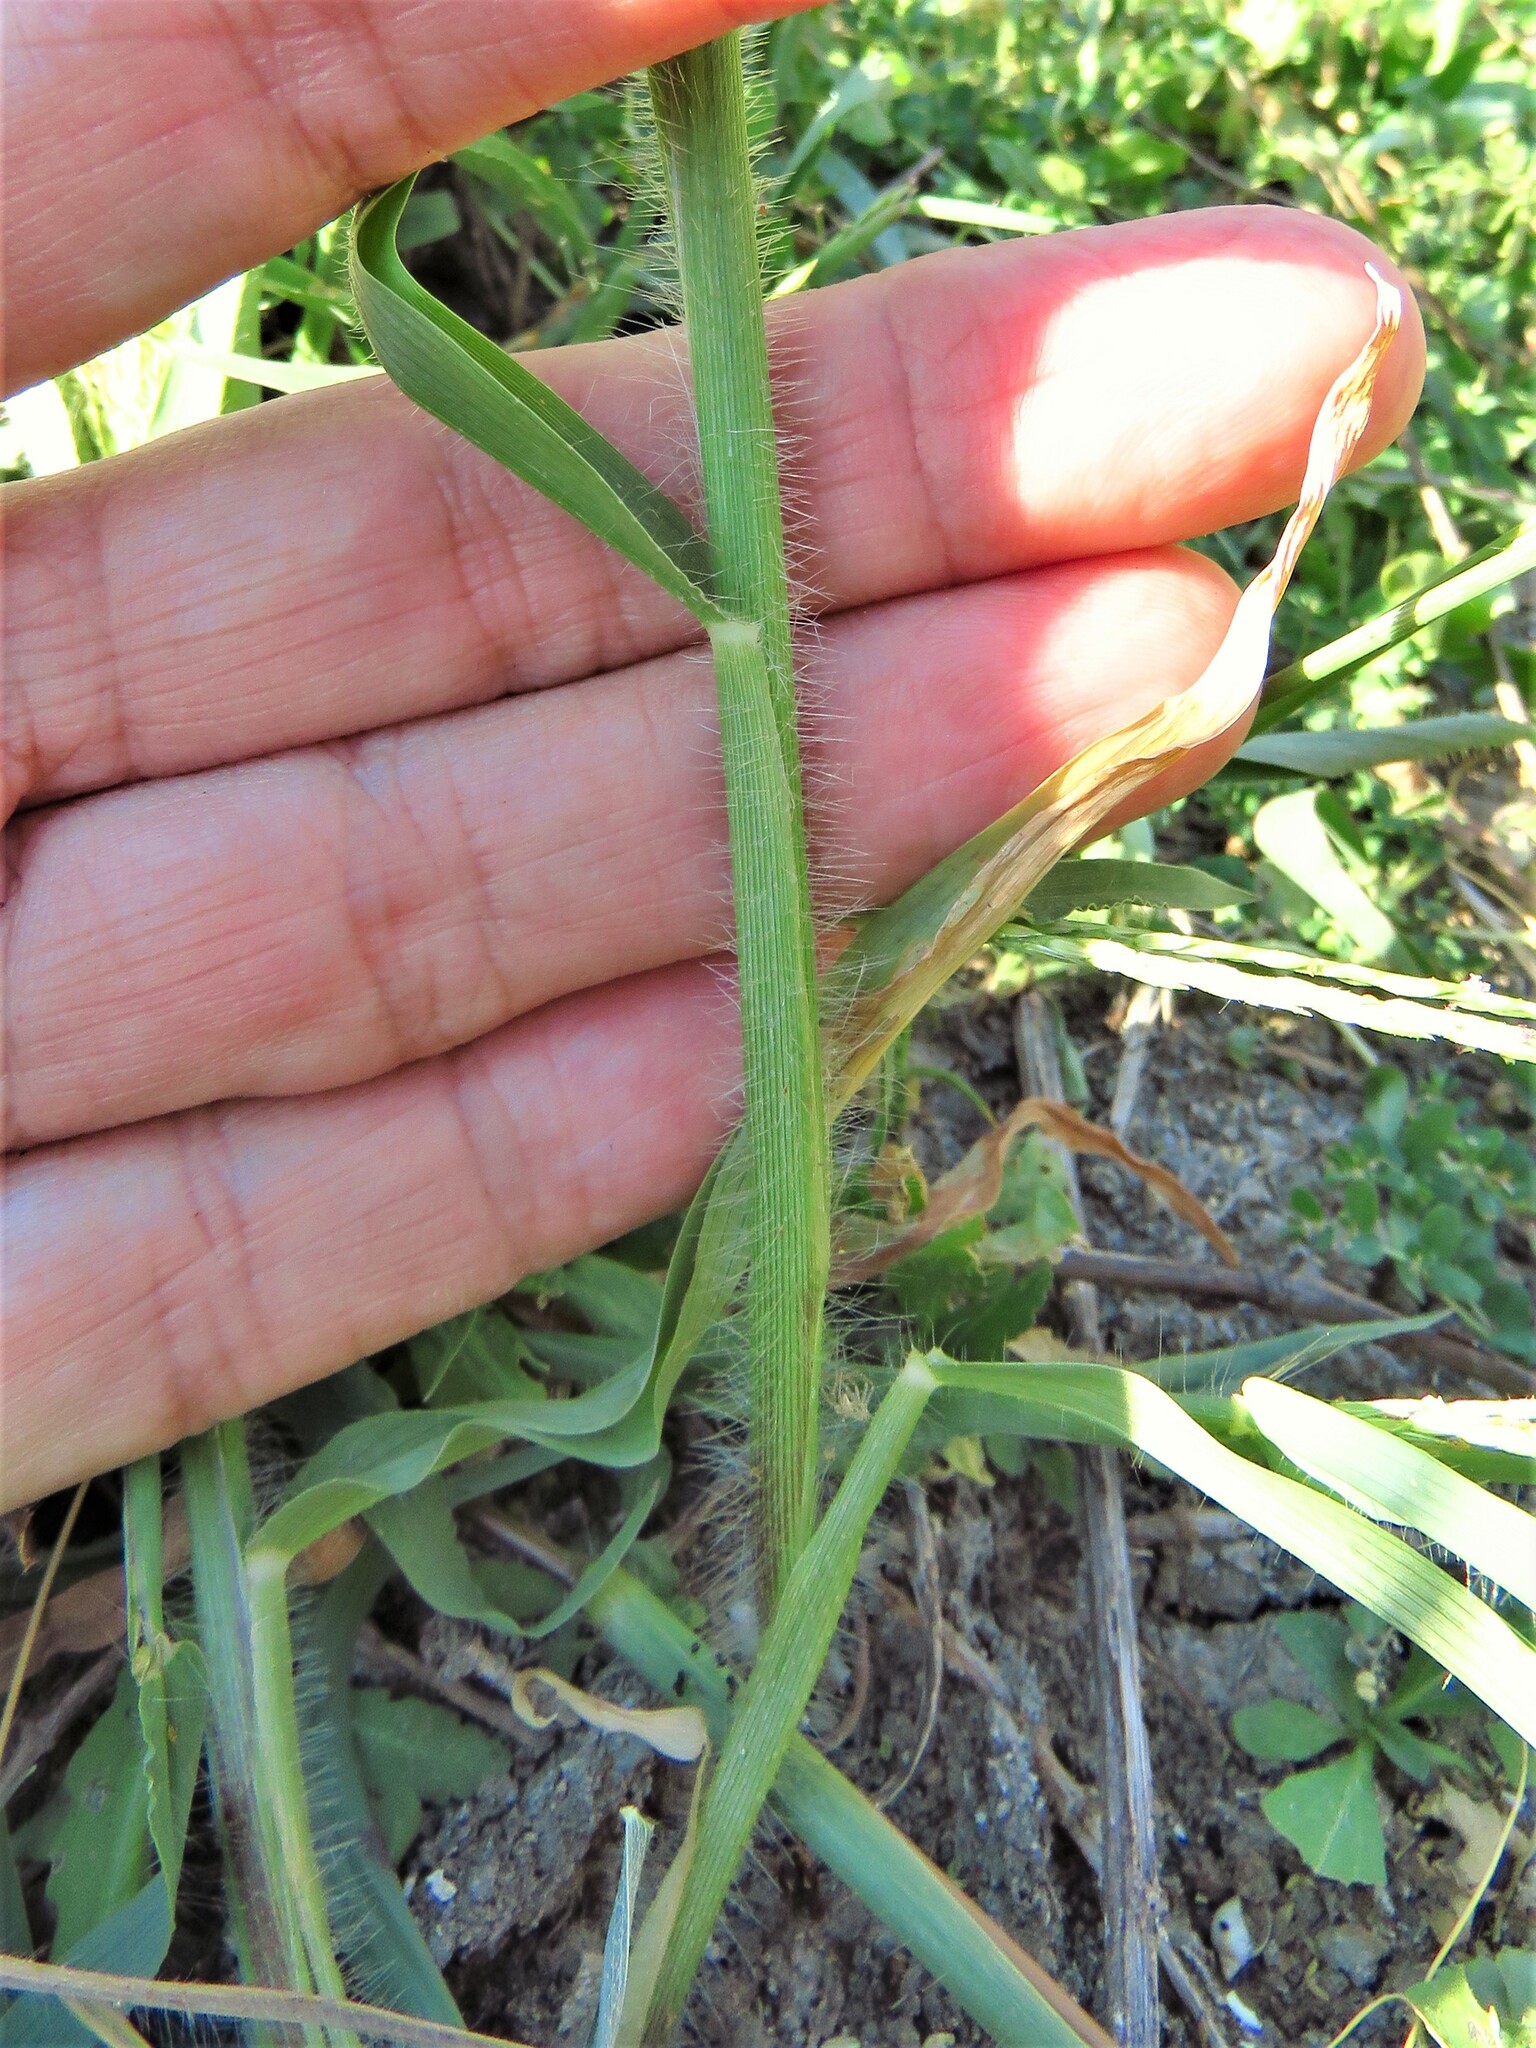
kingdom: Plantae
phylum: Tracheophyta
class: Liliopsida
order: Poales
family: Poaceae
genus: Panicum
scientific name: Panicum capillare
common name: Witch-grass
